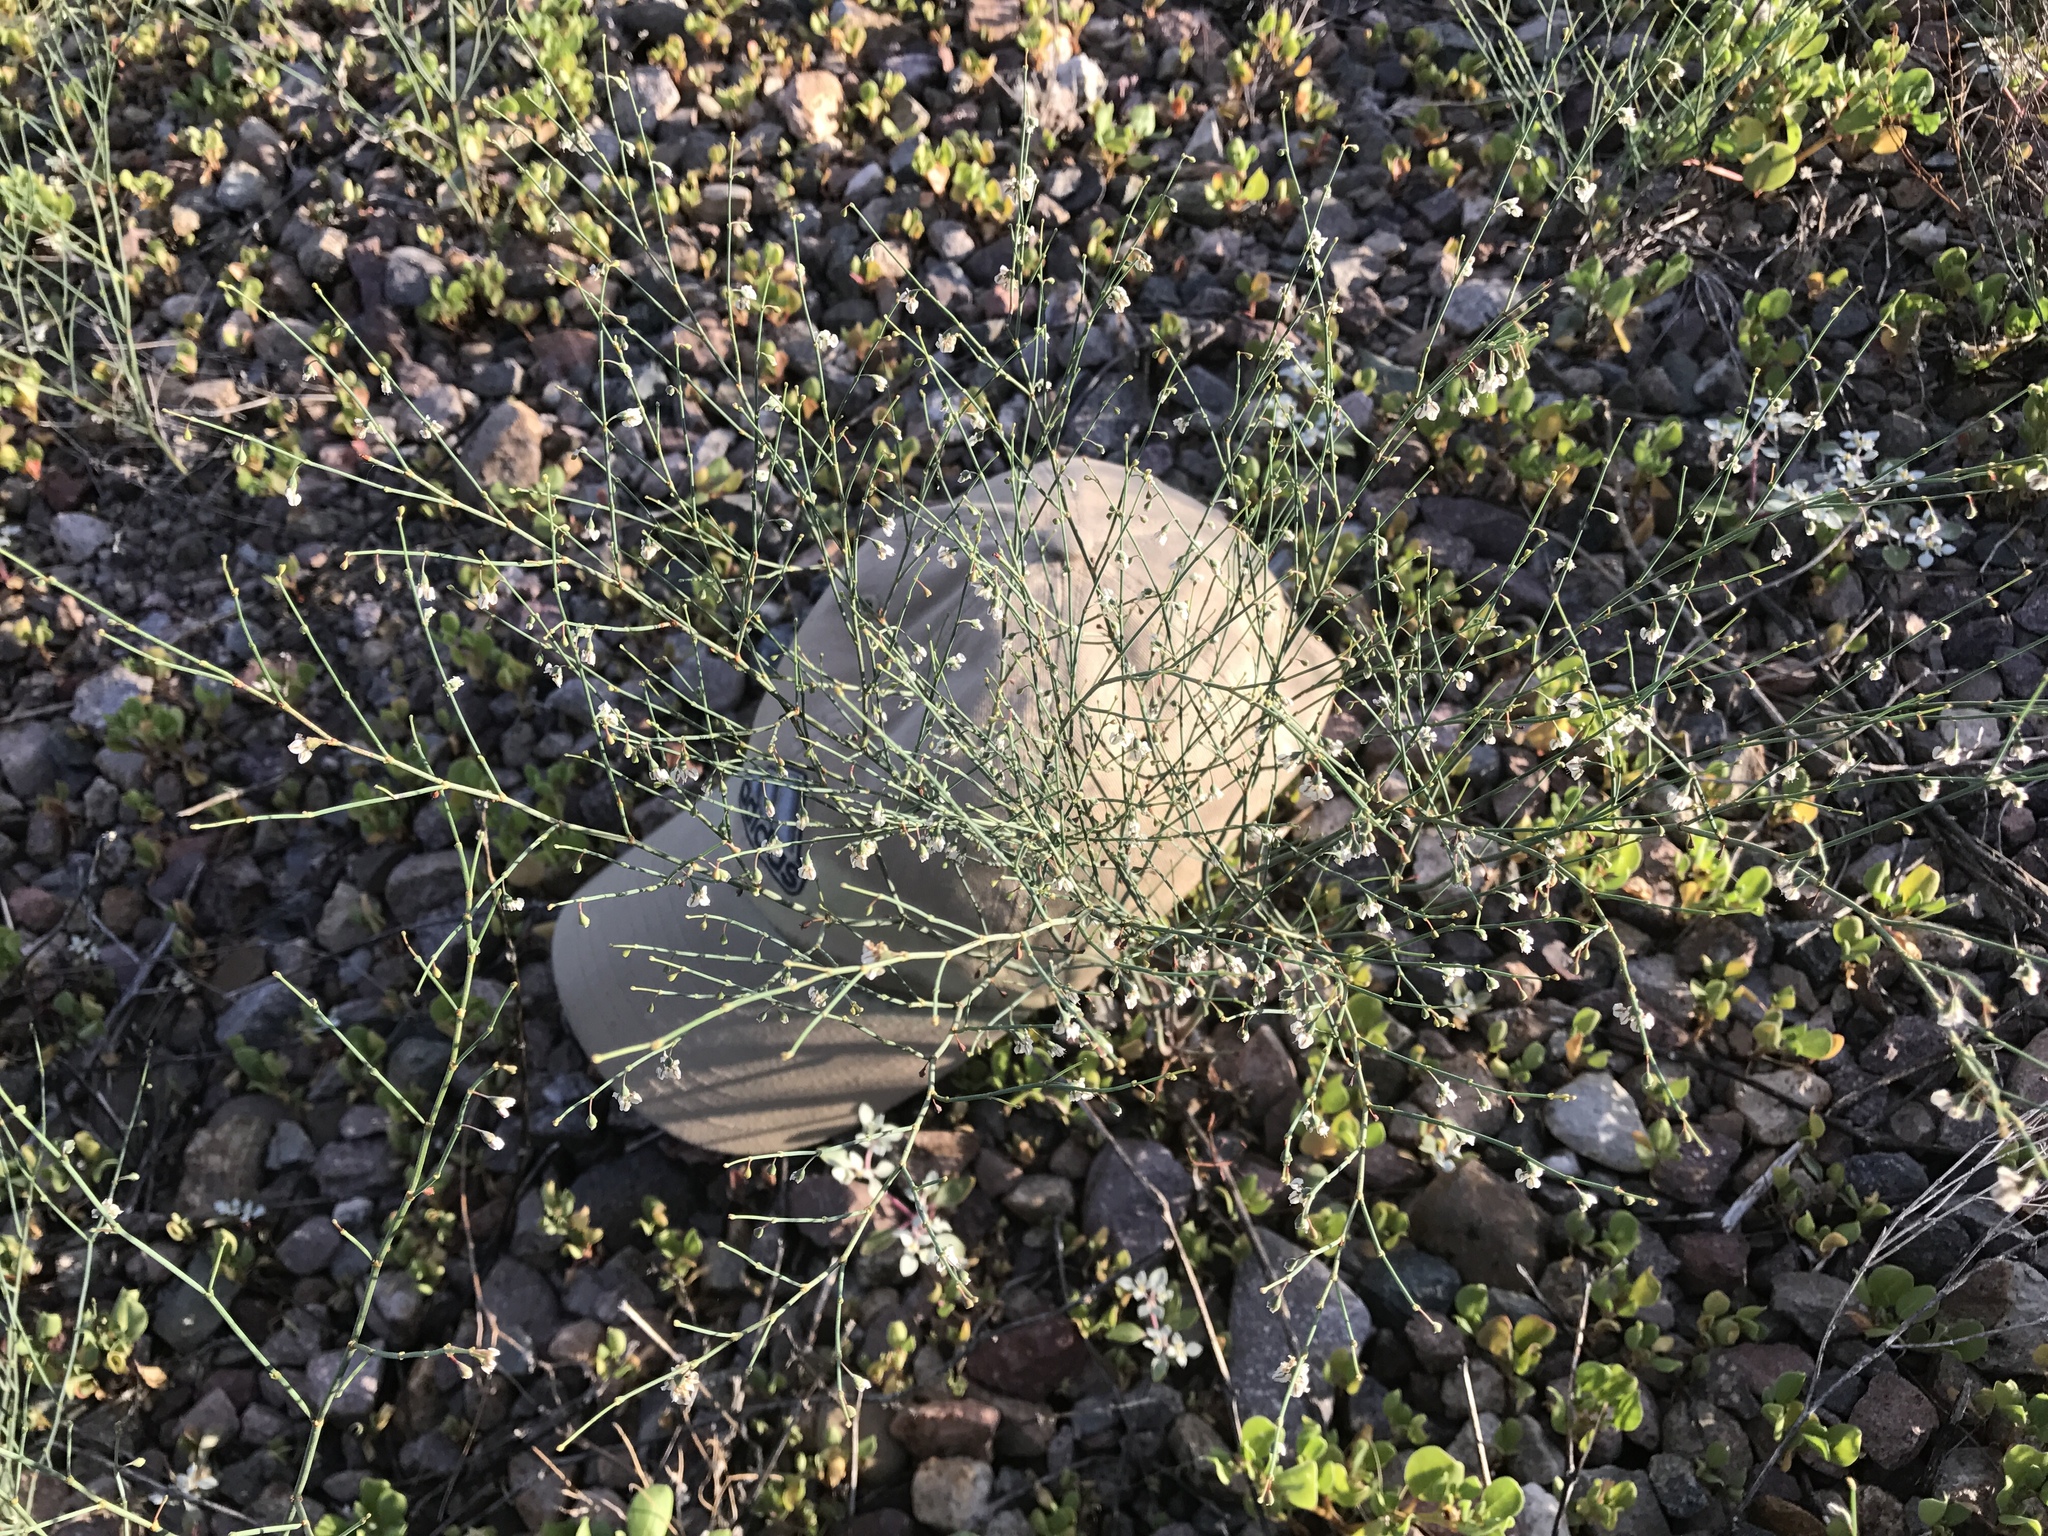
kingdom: Plantae
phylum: Tracheophyta
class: Magnoliopsida
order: Caryophyllales
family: Polygonaceae
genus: Eriogonum
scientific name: Eriogonum deflexum
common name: Skeleton-weed
